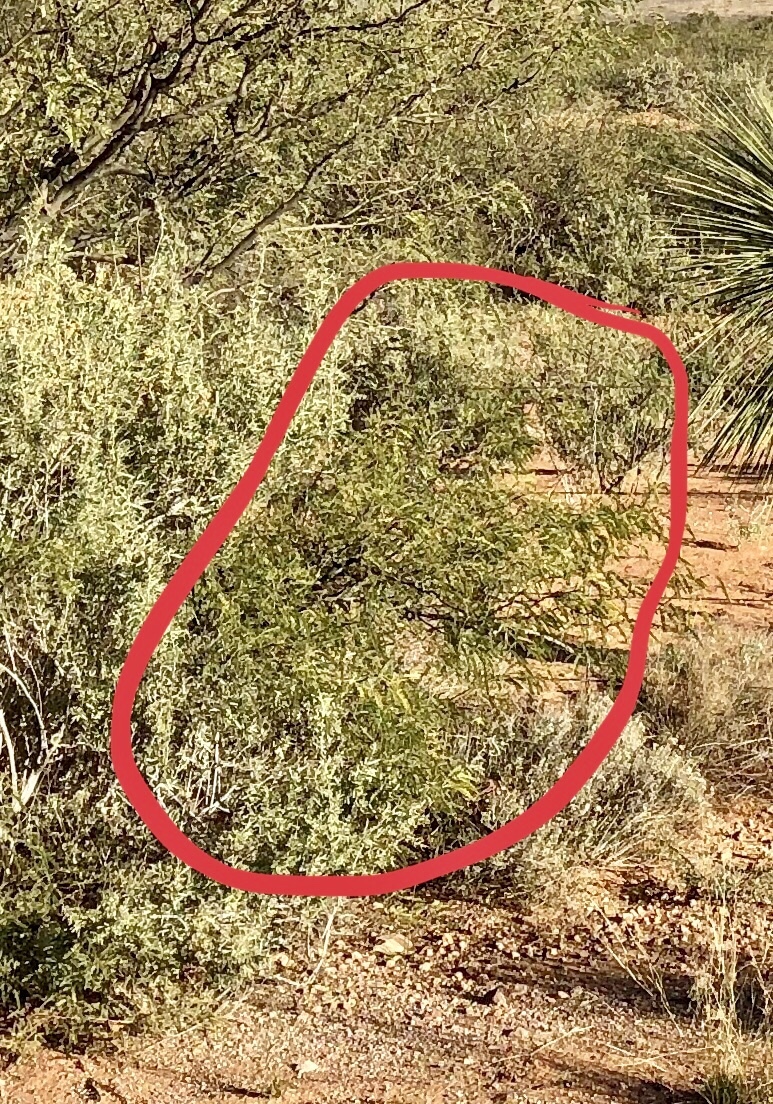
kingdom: Plantae
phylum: Tracheophyta
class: Magnoliopsida
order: Zygophyllales
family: Zygophyllaceae
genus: Larrea
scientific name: Larrea tridentata
